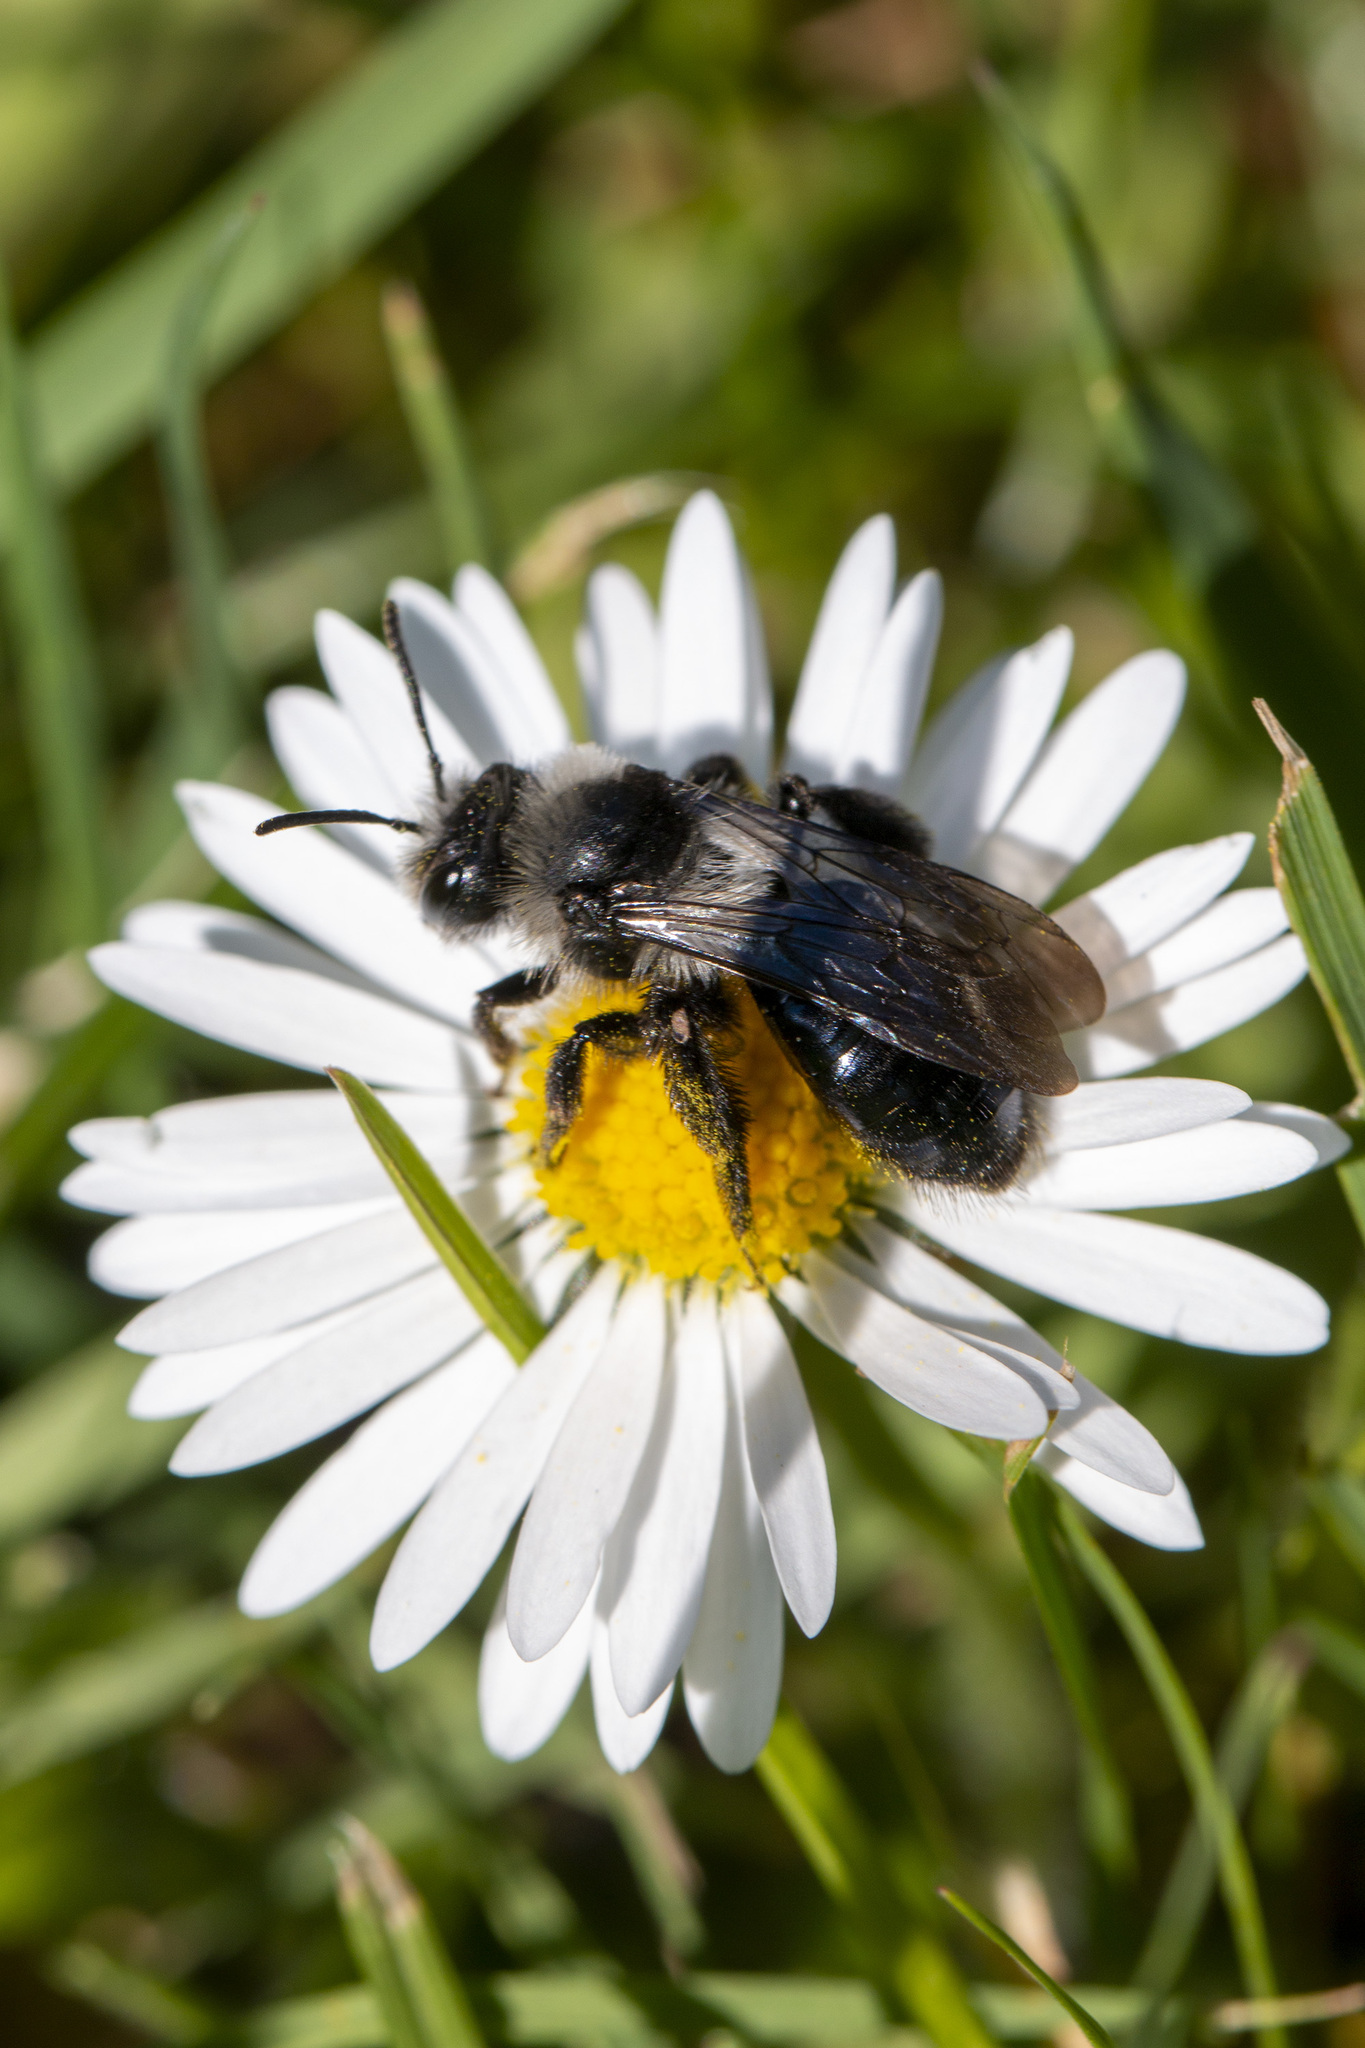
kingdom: Animalia
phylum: Arthropoda
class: Insecta
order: Hymenoptera
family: Andrenidae
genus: Andrena
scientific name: Andrena cineraria
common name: Ashy mining bee
